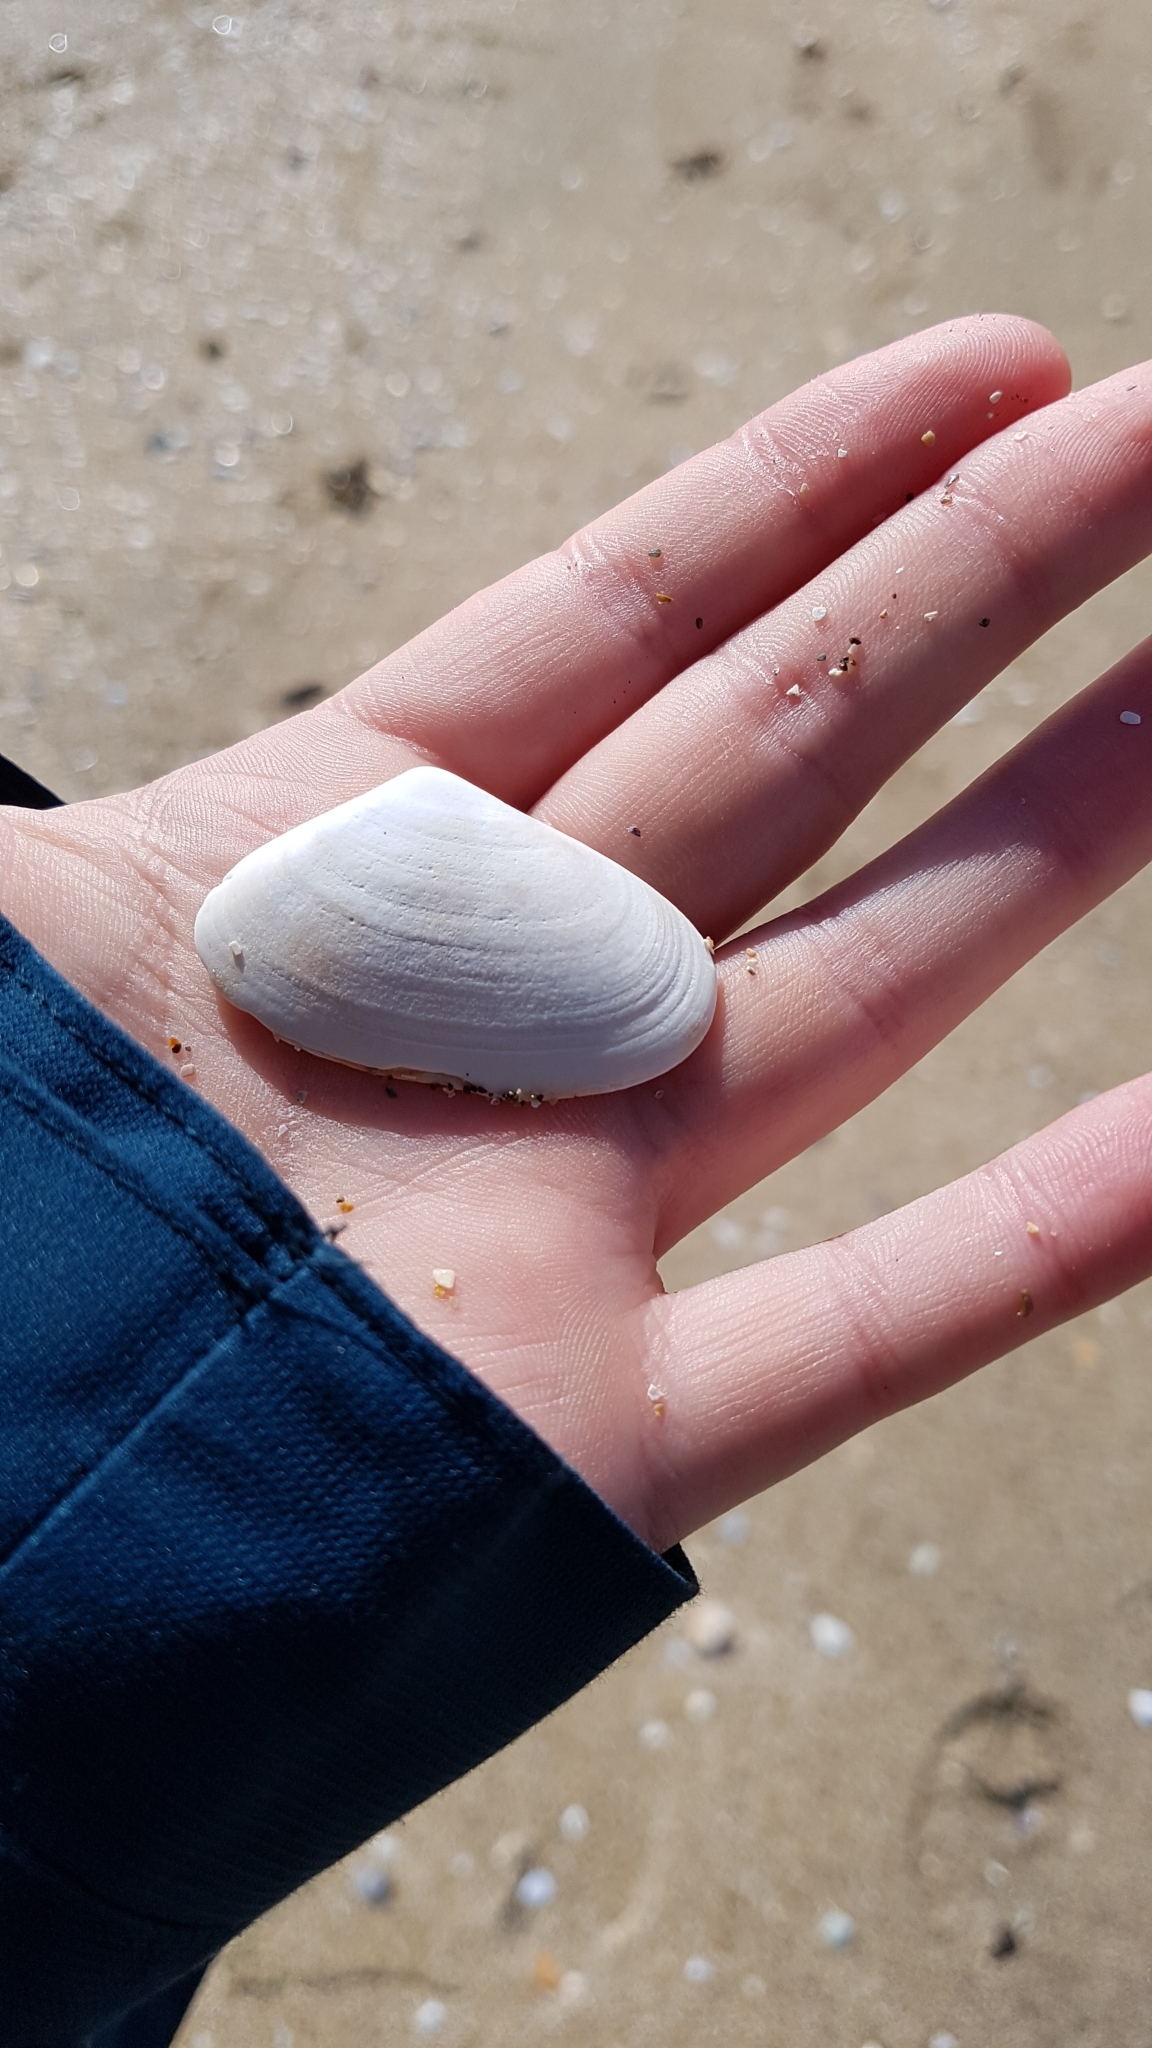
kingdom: Animalia
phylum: Mollusca
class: Bivalvia
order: Venerida
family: Mesodesmatidae
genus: Paphies
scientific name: Paphies subtriangulata
